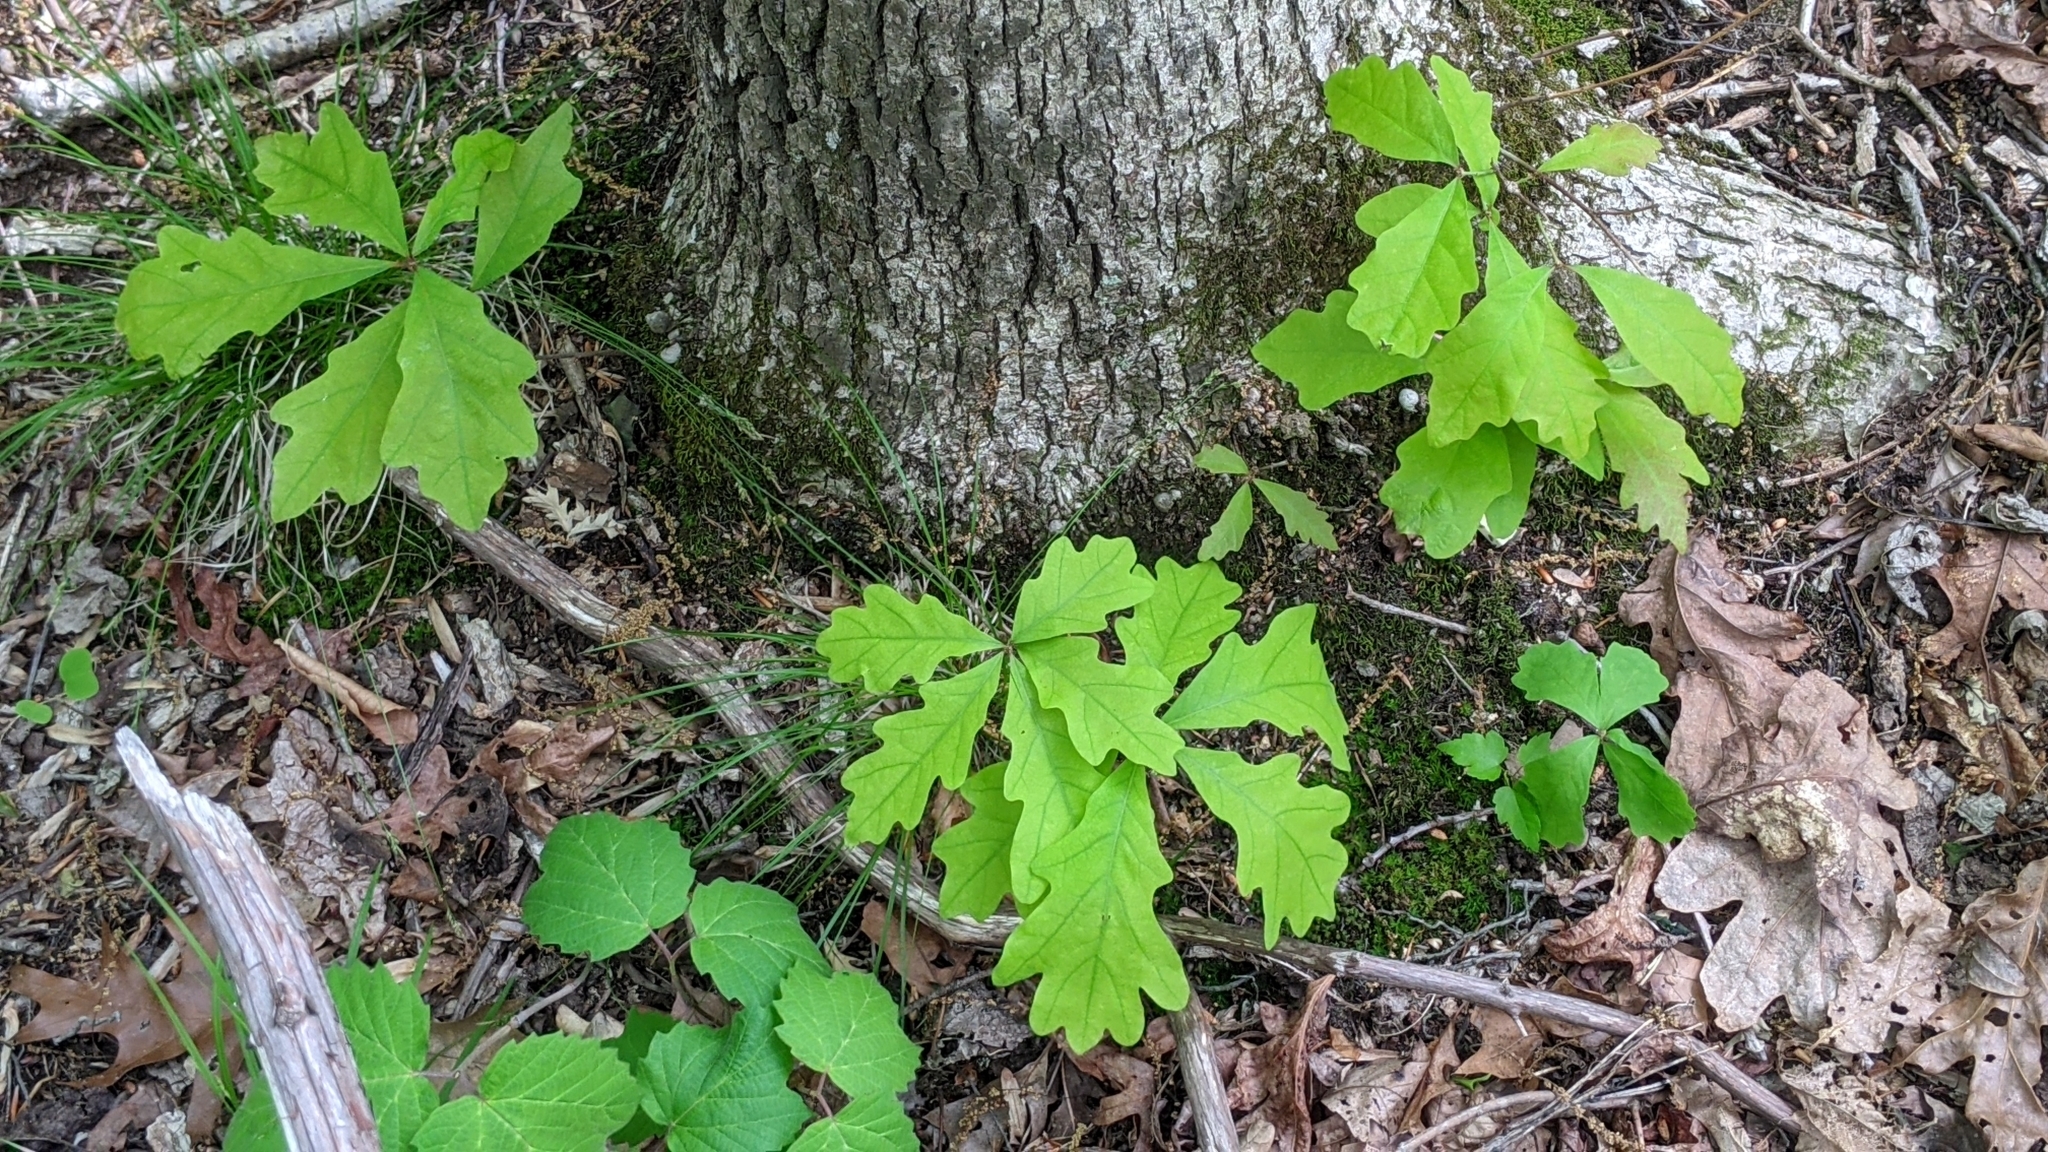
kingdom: Plantae
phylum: Tracheophyta
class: Magnoliopsida
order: Fagales
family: Fagaceae
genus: Quercus
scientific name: Quercus alba
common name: White oak
